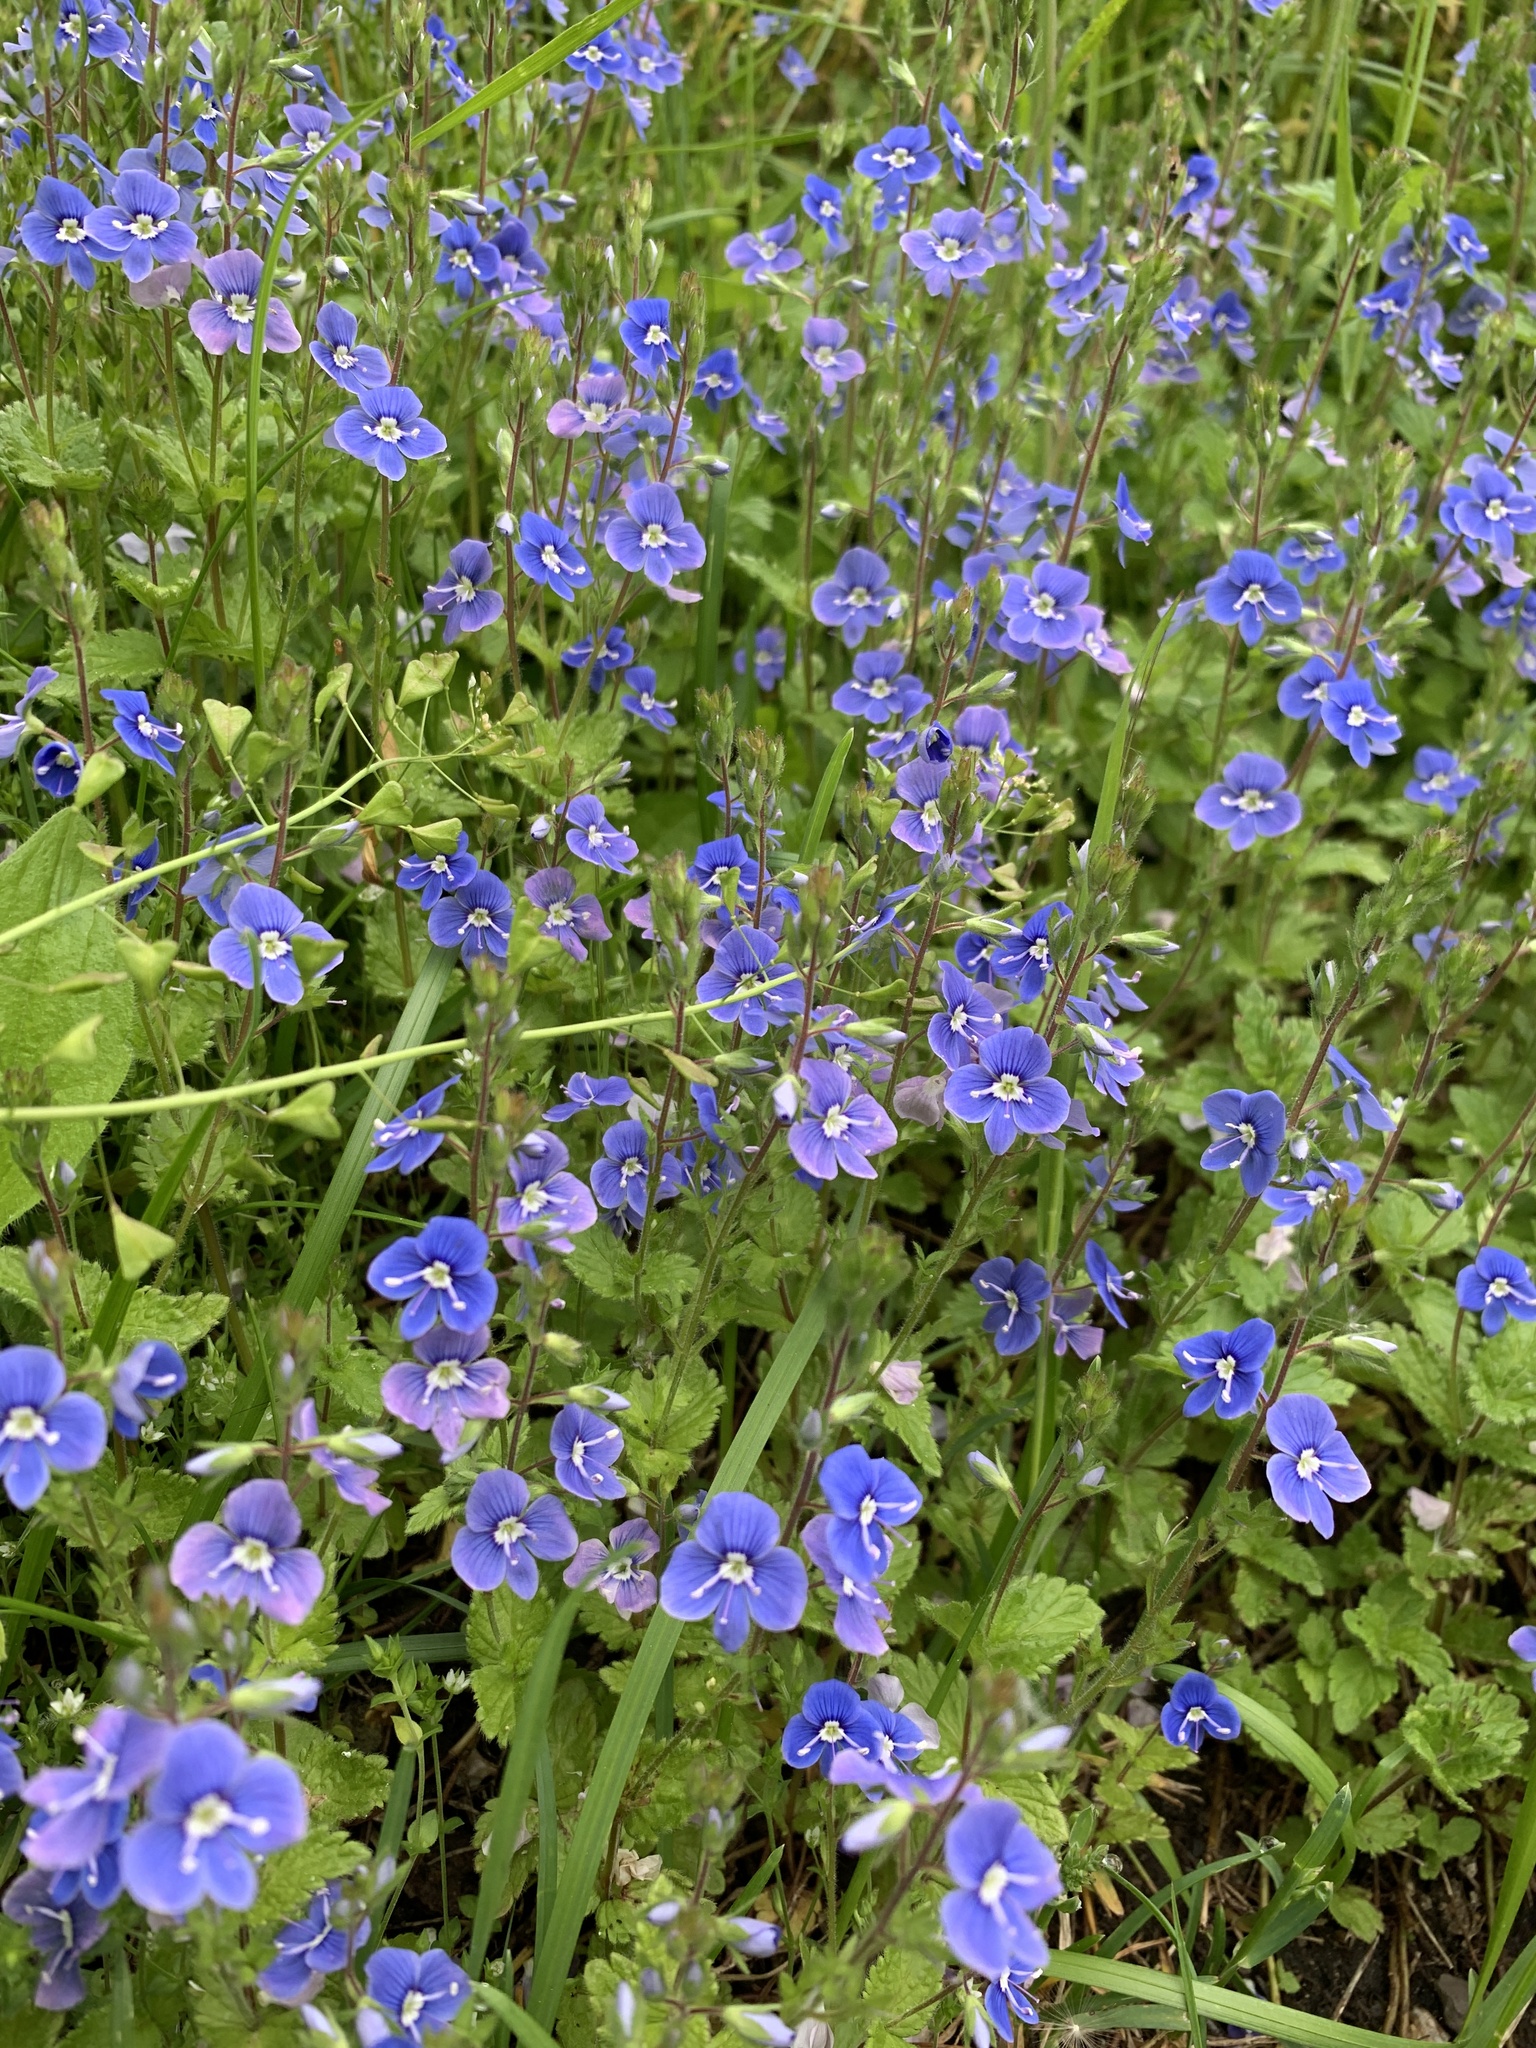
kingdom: Plantae
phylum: Tracheophyta
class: Magnoliopsida
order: Lamiales
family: Plantaginaceae
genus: Veronica
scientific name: Veronica chamaedrys
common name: Germander speedwell
